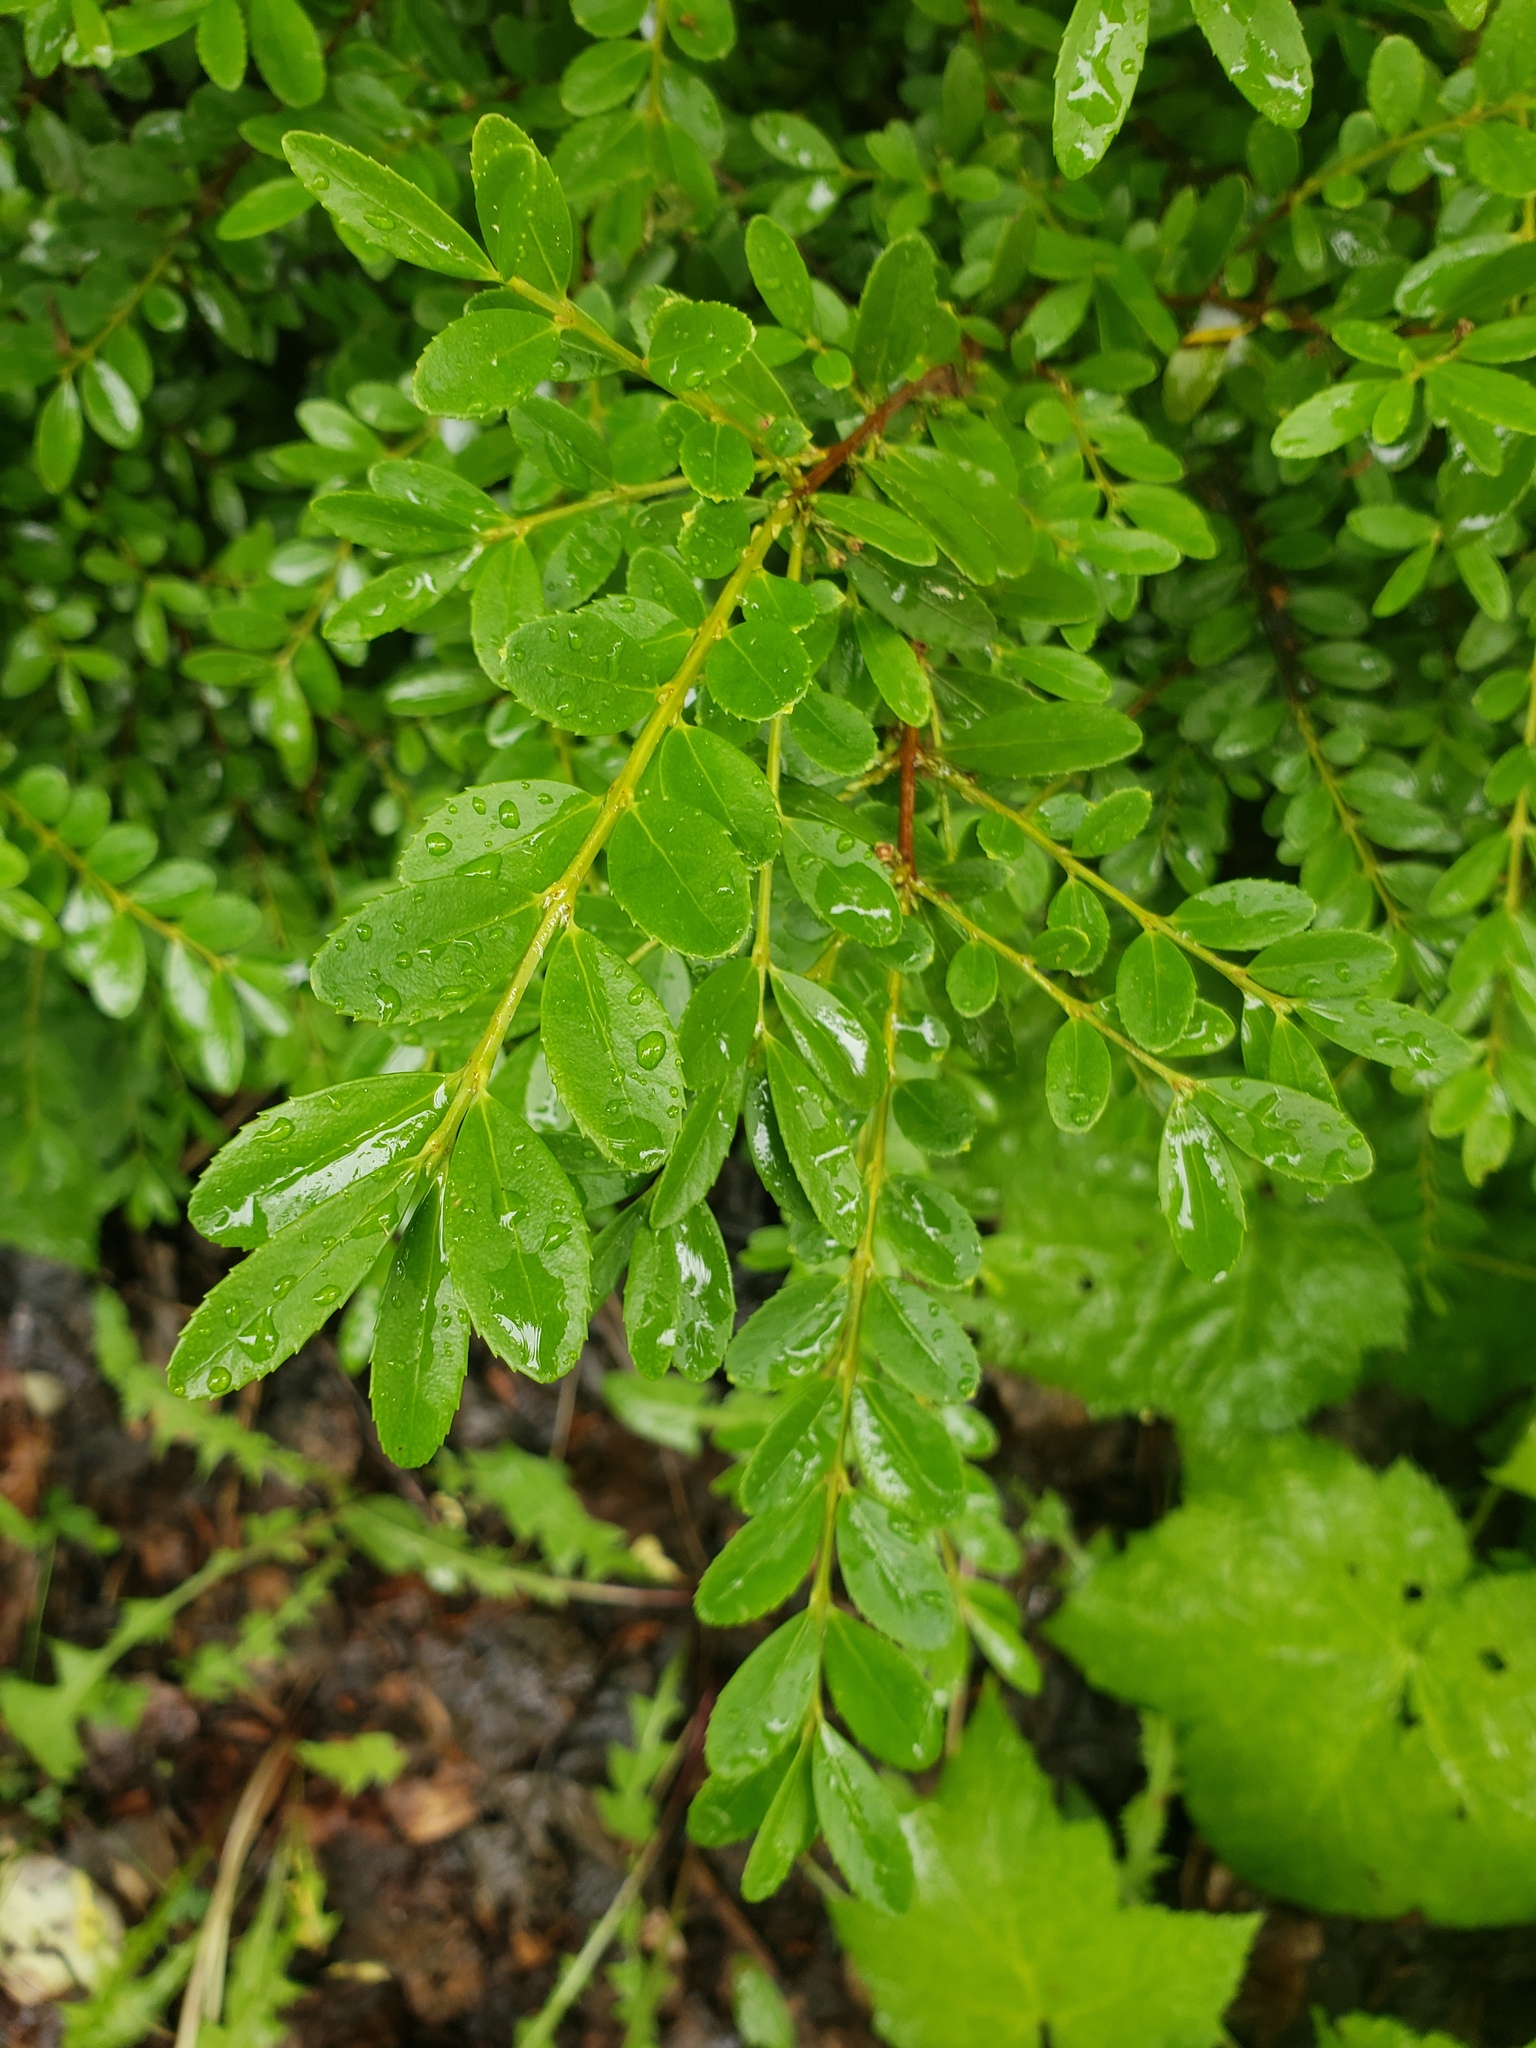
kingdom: Plantae
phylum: Tracheophyta
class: Magnoliopsida
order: Celastrales
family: Celastraceae
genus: Paxistima
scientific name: Paxistima myrsinites
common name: Mountain-lover
